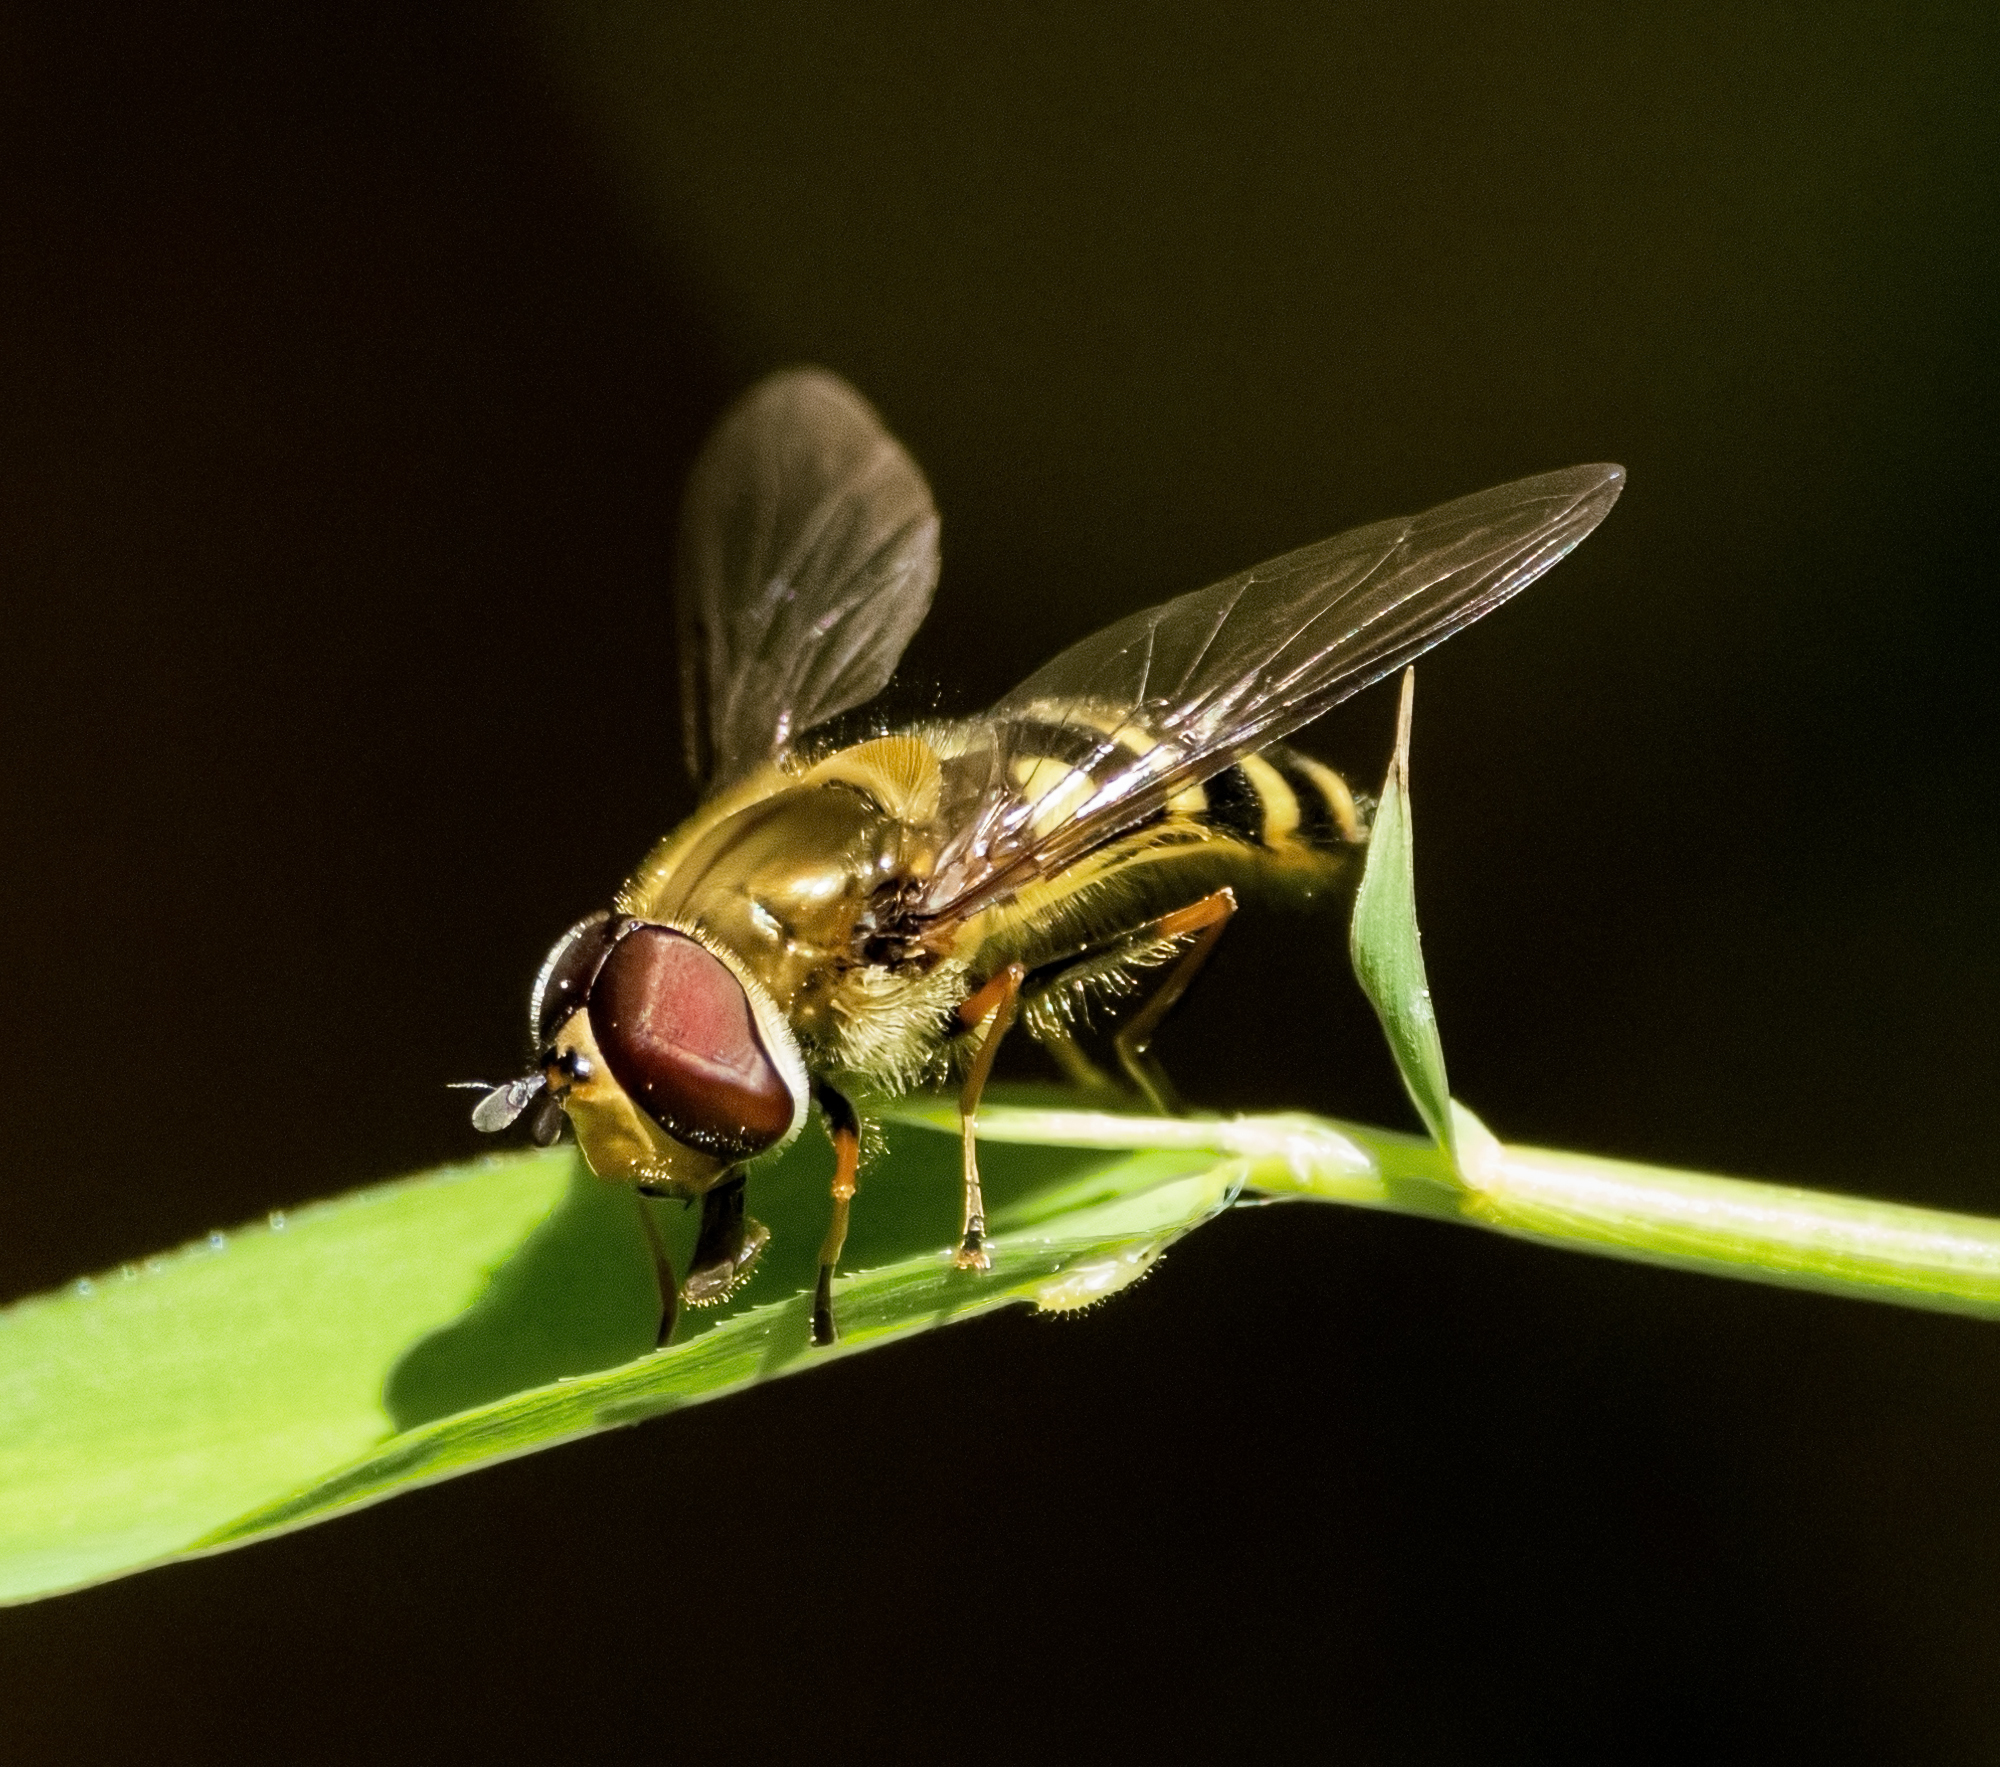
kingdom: Animalia
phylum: Arthropoda
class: Insecta
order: Diptera
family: Syrphidae
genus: Syrphus
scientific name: Syrphus torvus
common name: Hairy-eyed flower fly
